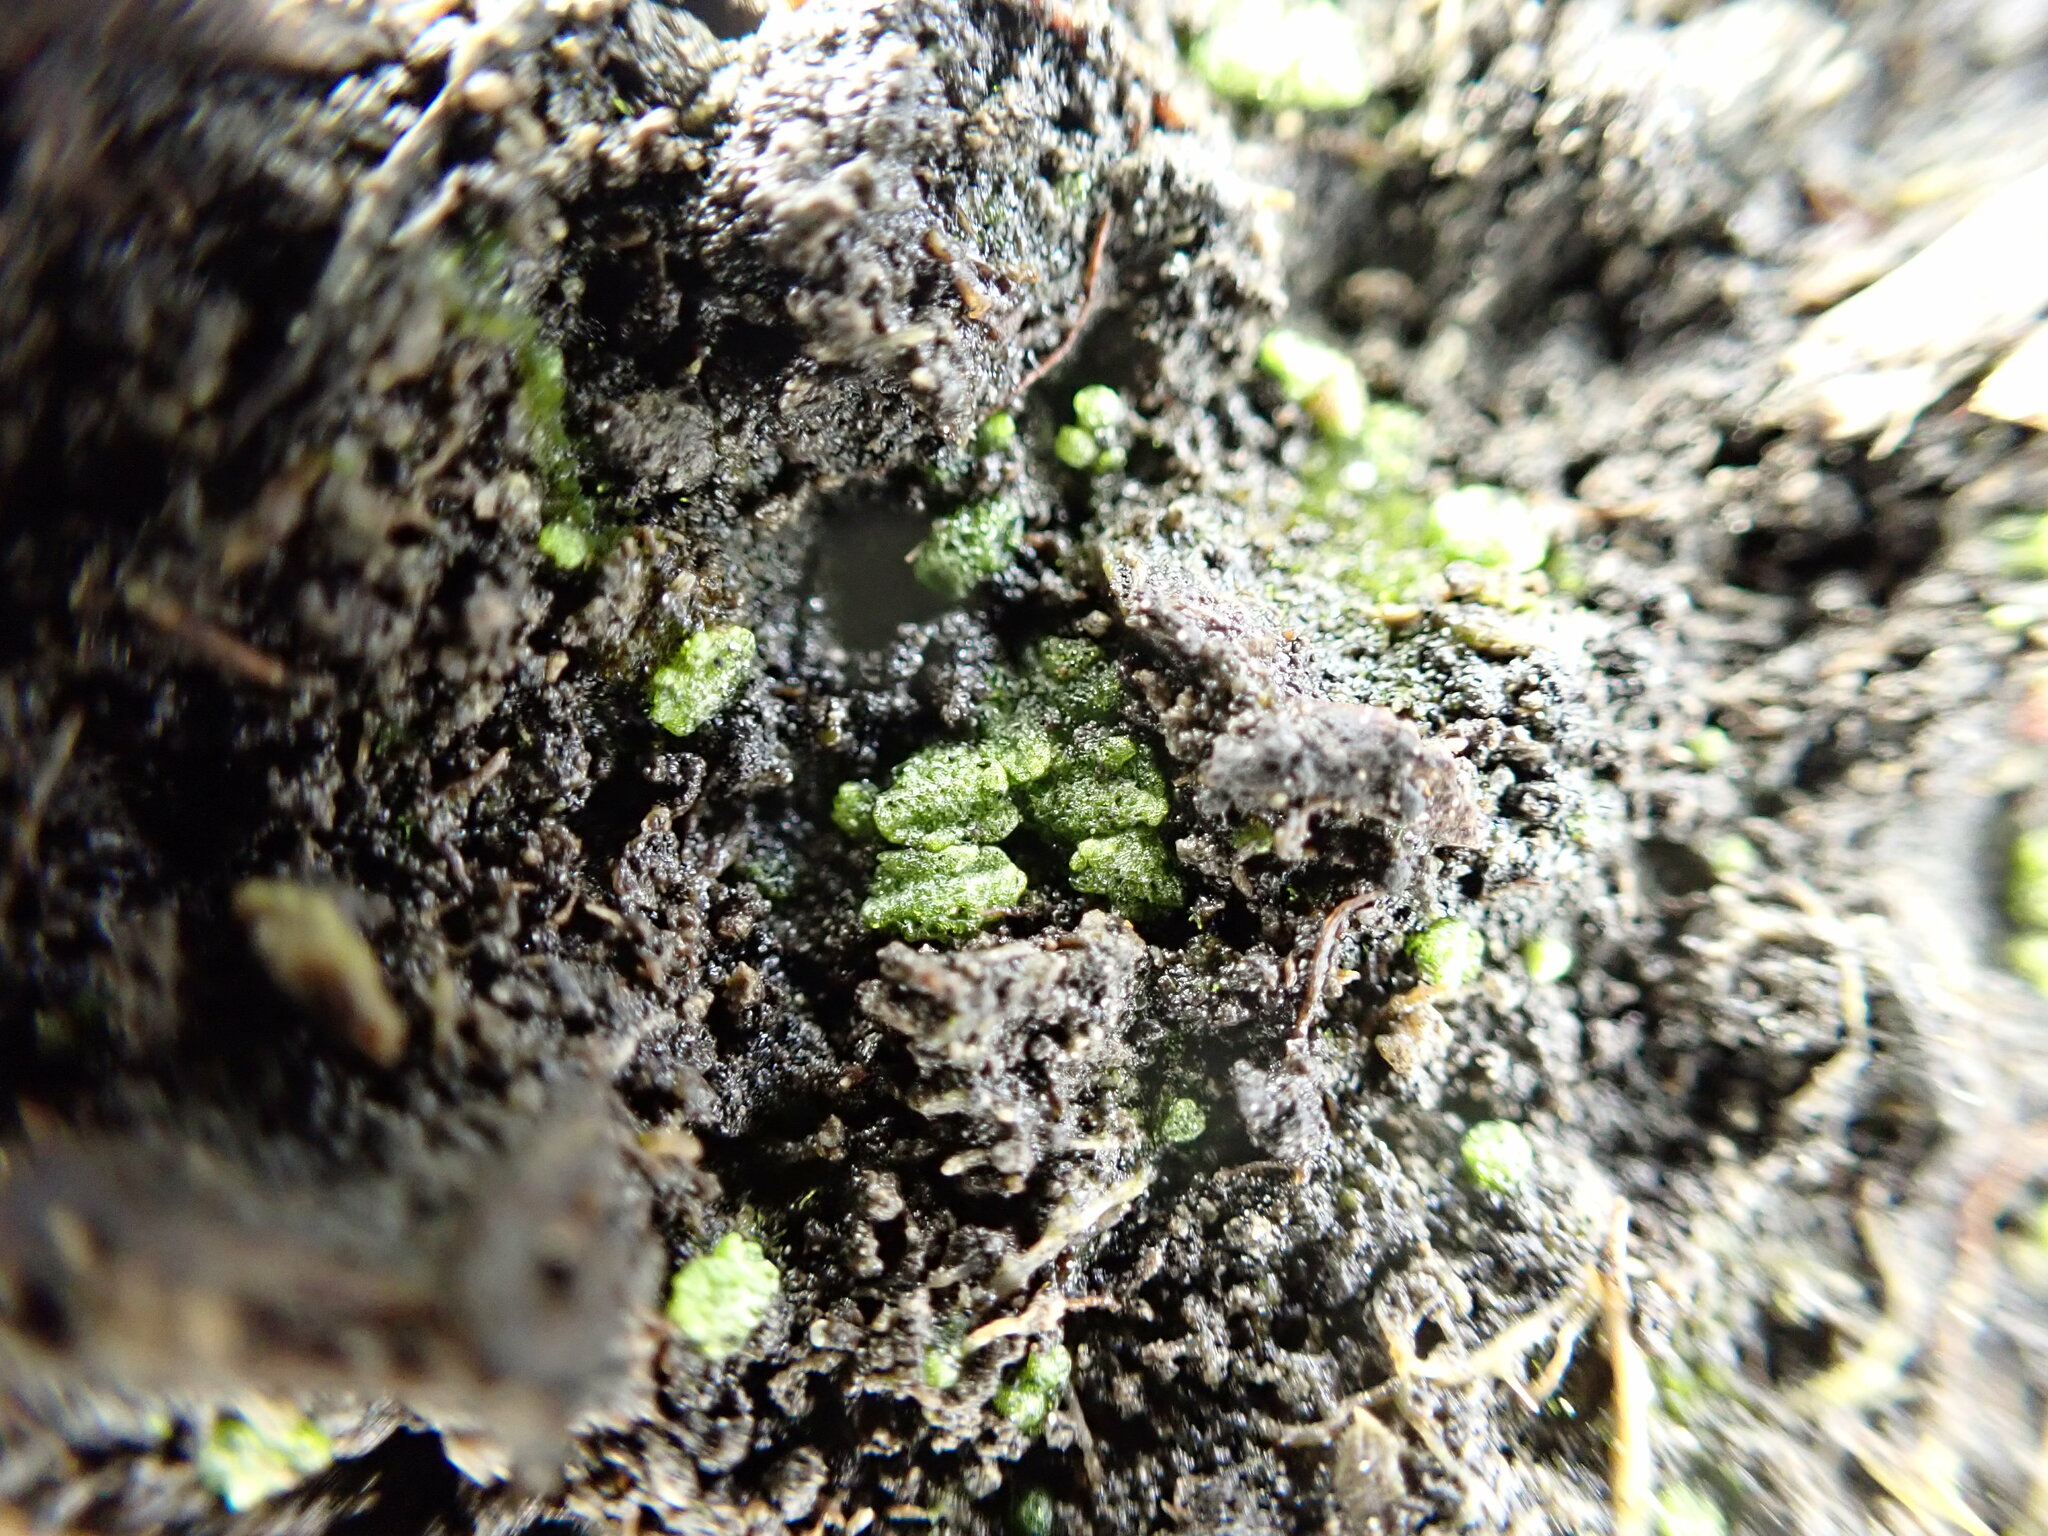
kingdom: Plantae
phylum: Marchantiophyta
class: Marchantiopsida
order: Marchantiales
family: Ricciaceae
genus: Riccia
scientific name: Riccia cavernosa
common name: Cavernous crystalwort
